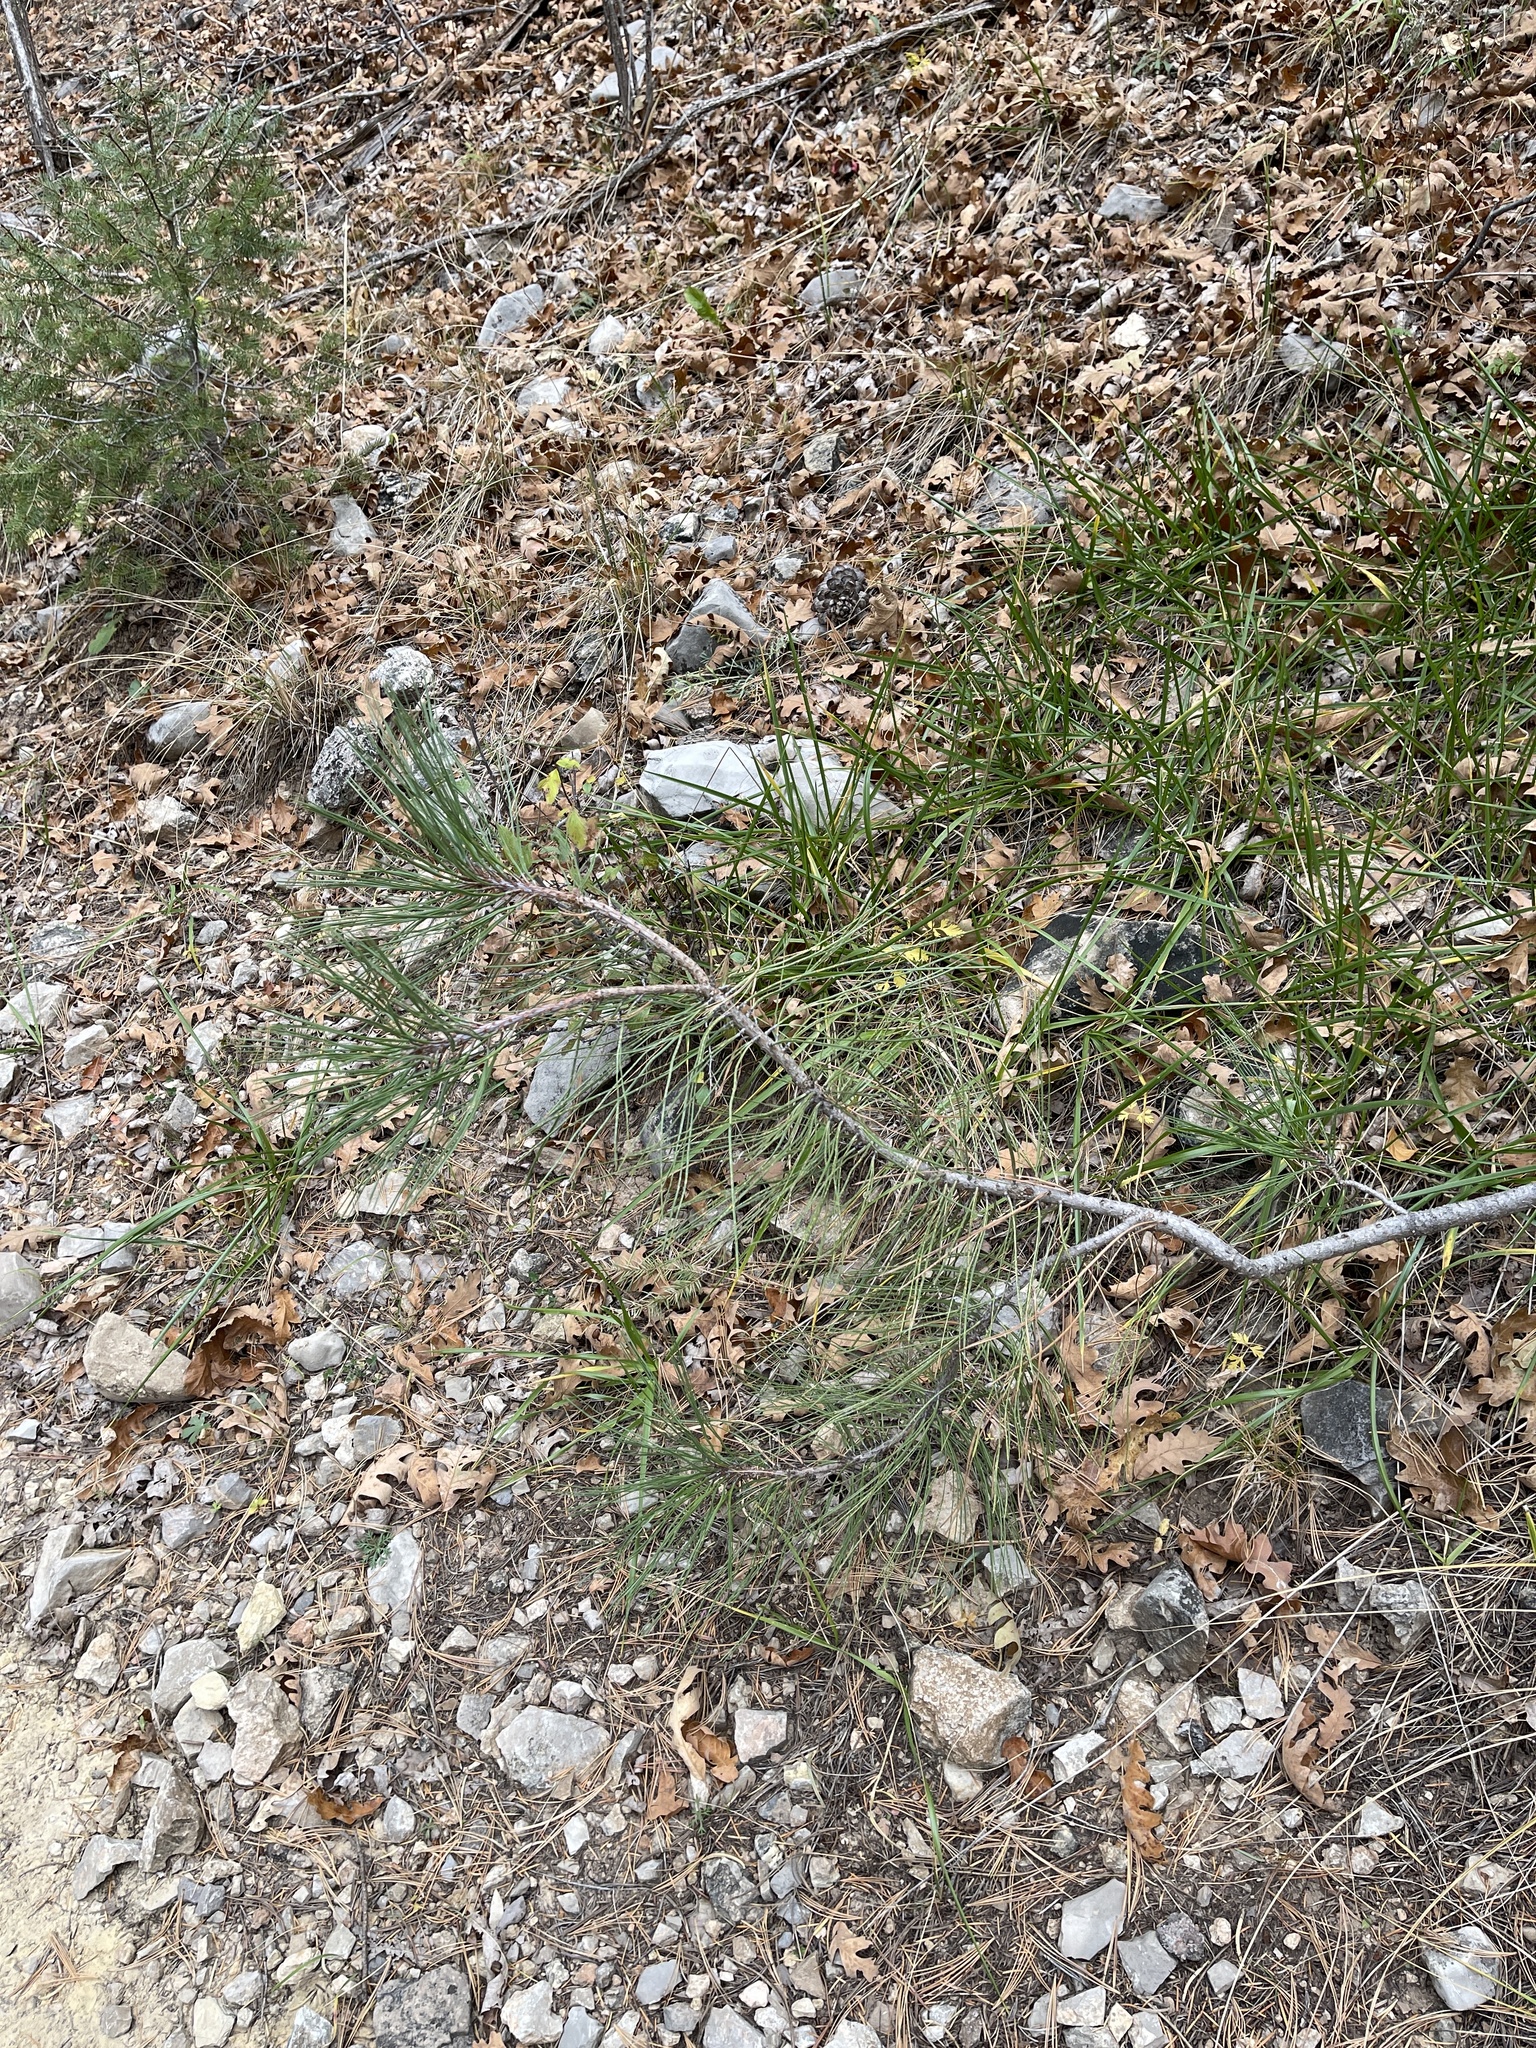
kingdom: Plantae
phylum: Tracheophyta
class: Pinopsida
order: Pinales
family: Pinaceae
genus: Pinus
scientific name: Pinus ponderosa
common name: Western yellow-pine
